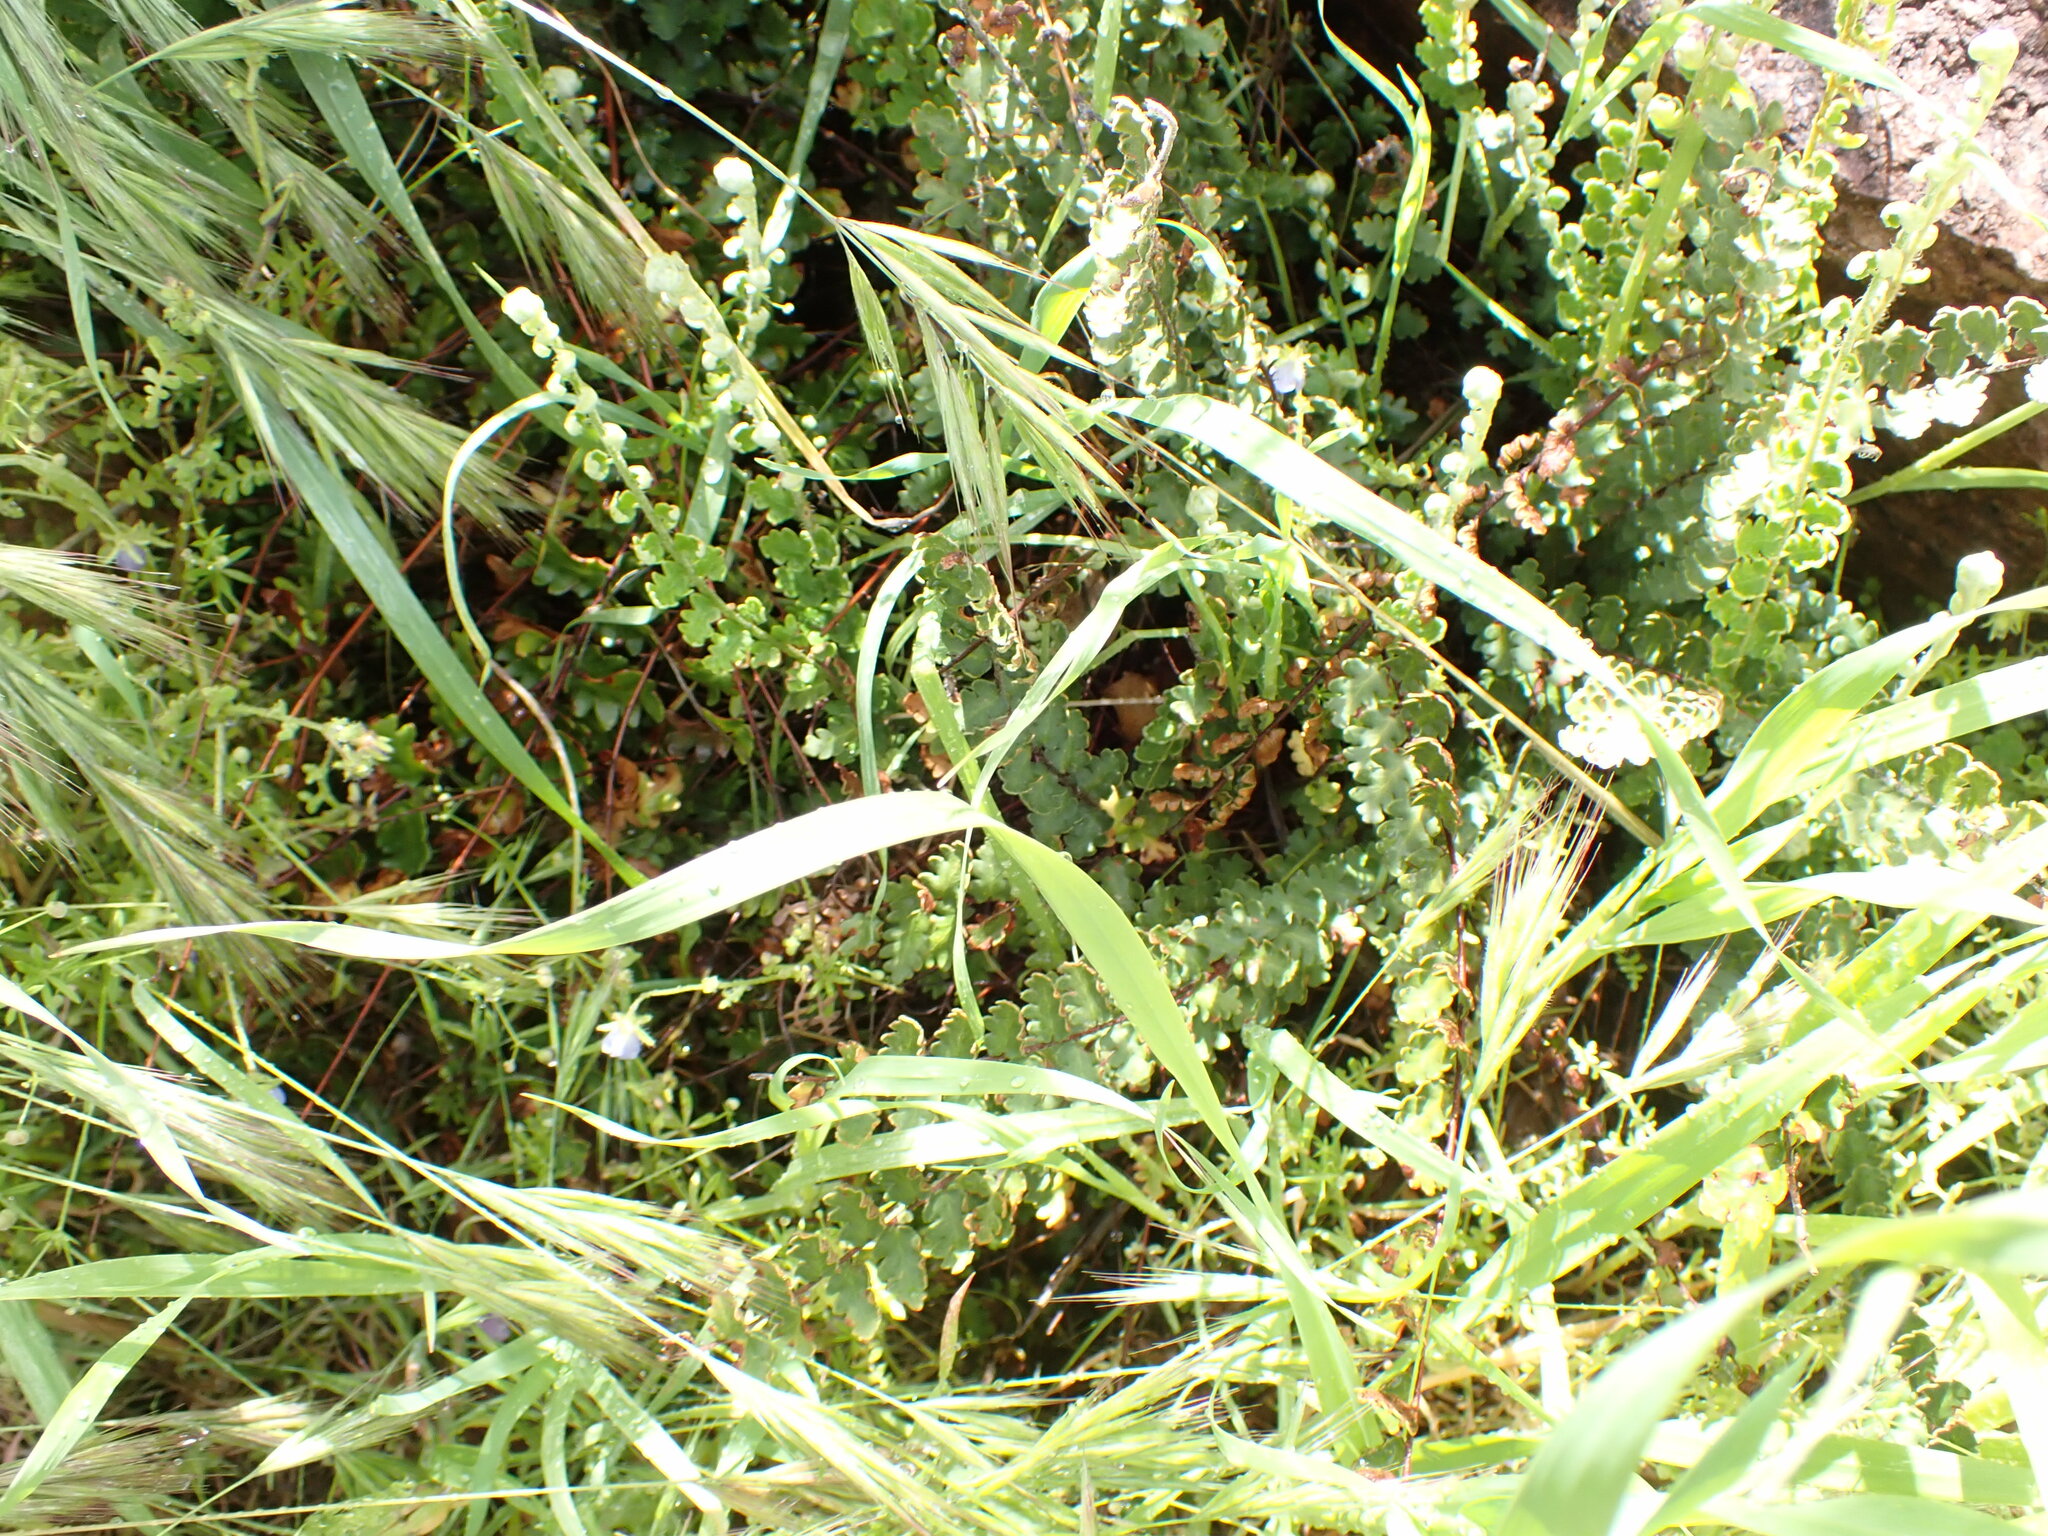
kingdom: Plantae
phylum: Tracheophyta
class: Polypodiopsida
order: Polypodiales
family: Pteridaceae
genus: Astrolepis
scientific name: Astrolepis sinuata
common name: Wavy scaly cloakfern
